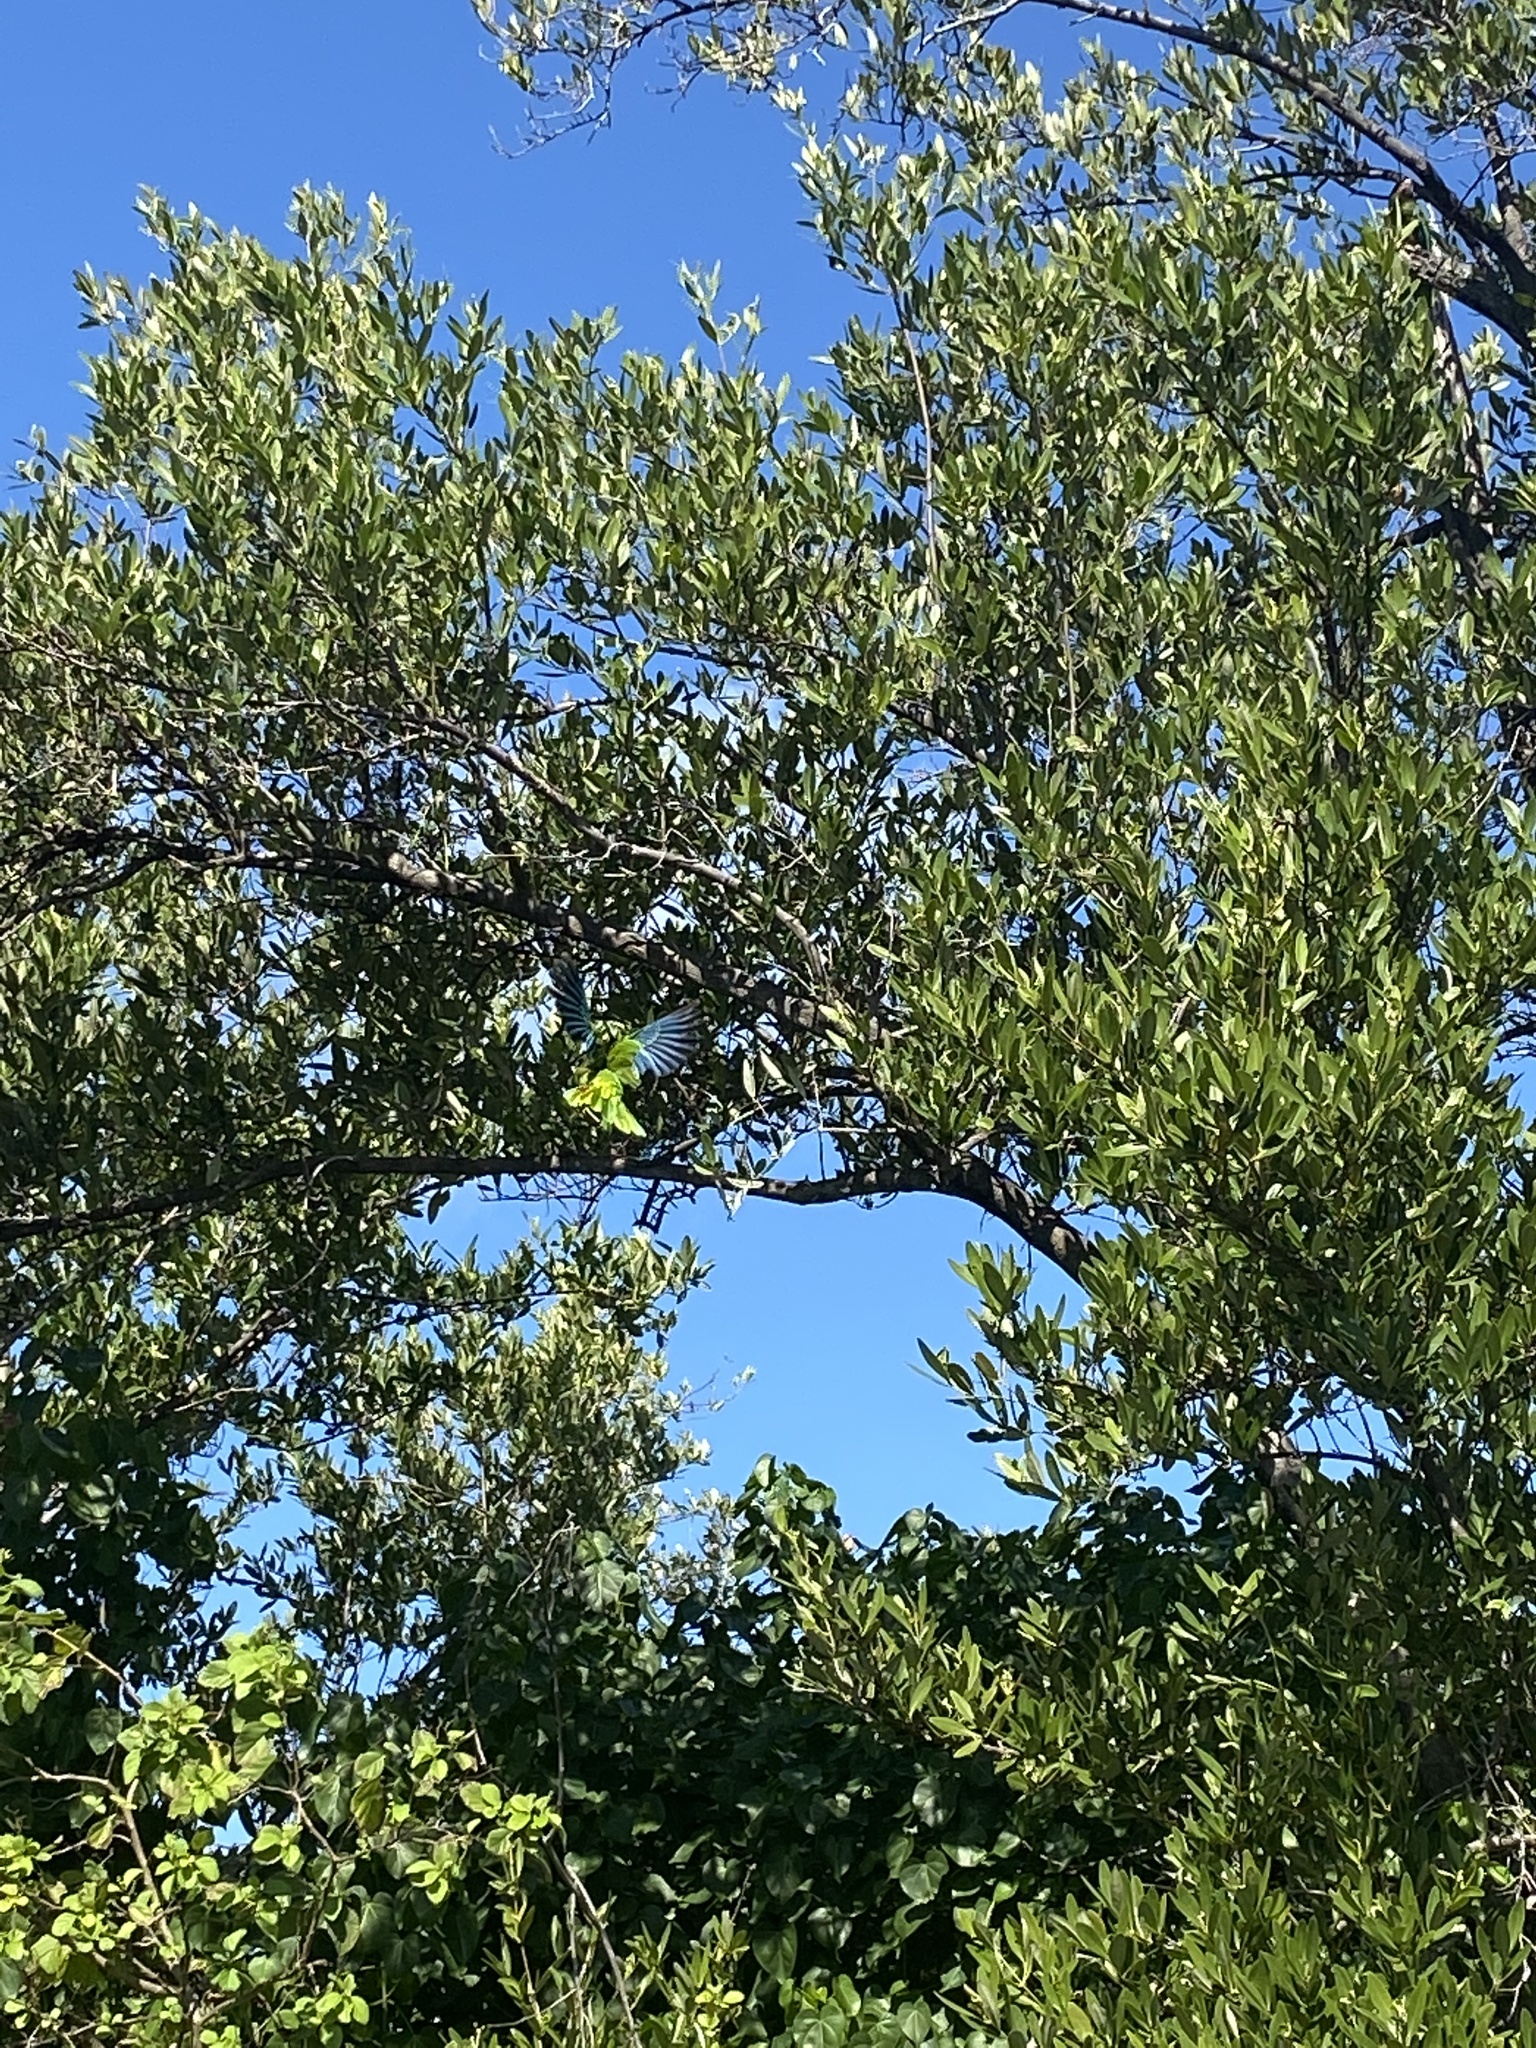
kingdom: Animalia
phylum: Chordata
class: Aves
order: Psittaciformes
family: Psittacidae
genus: Amazona
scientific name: Amazona leucocephala
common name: Cuban amazon
